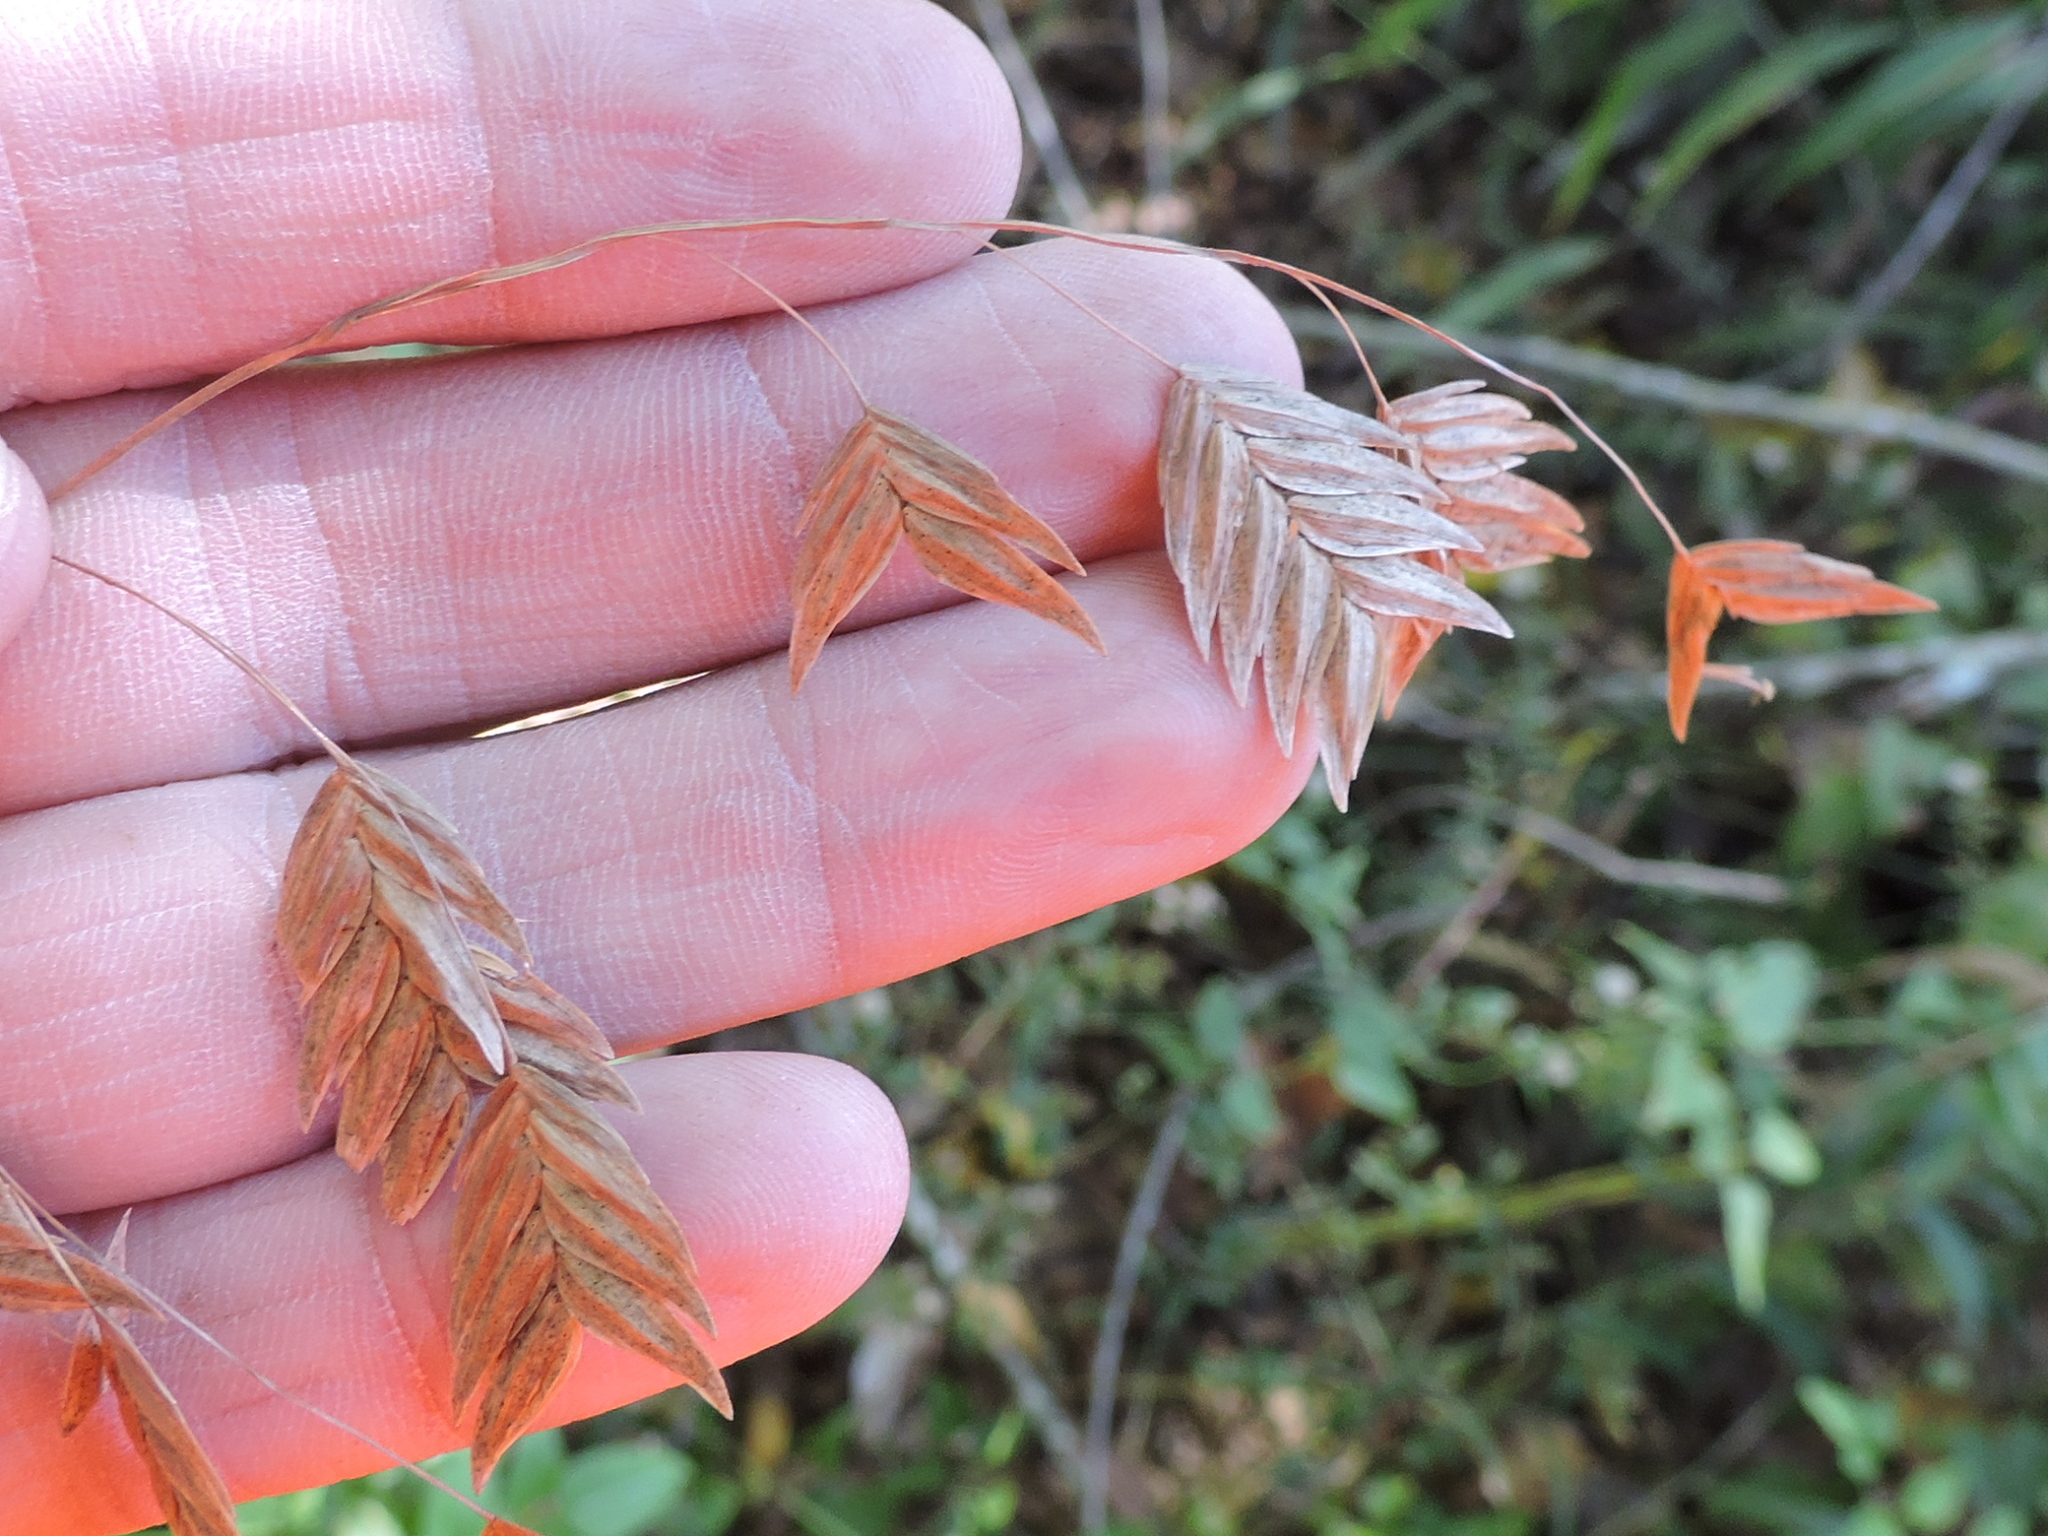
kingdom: Plantae
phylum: Tracheophyta
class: Liliopsida
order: Poales
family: Poaceae
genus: Chasmanthium
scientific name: Chasmanthium latifolium
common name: Broad-leaved chasmanthium
